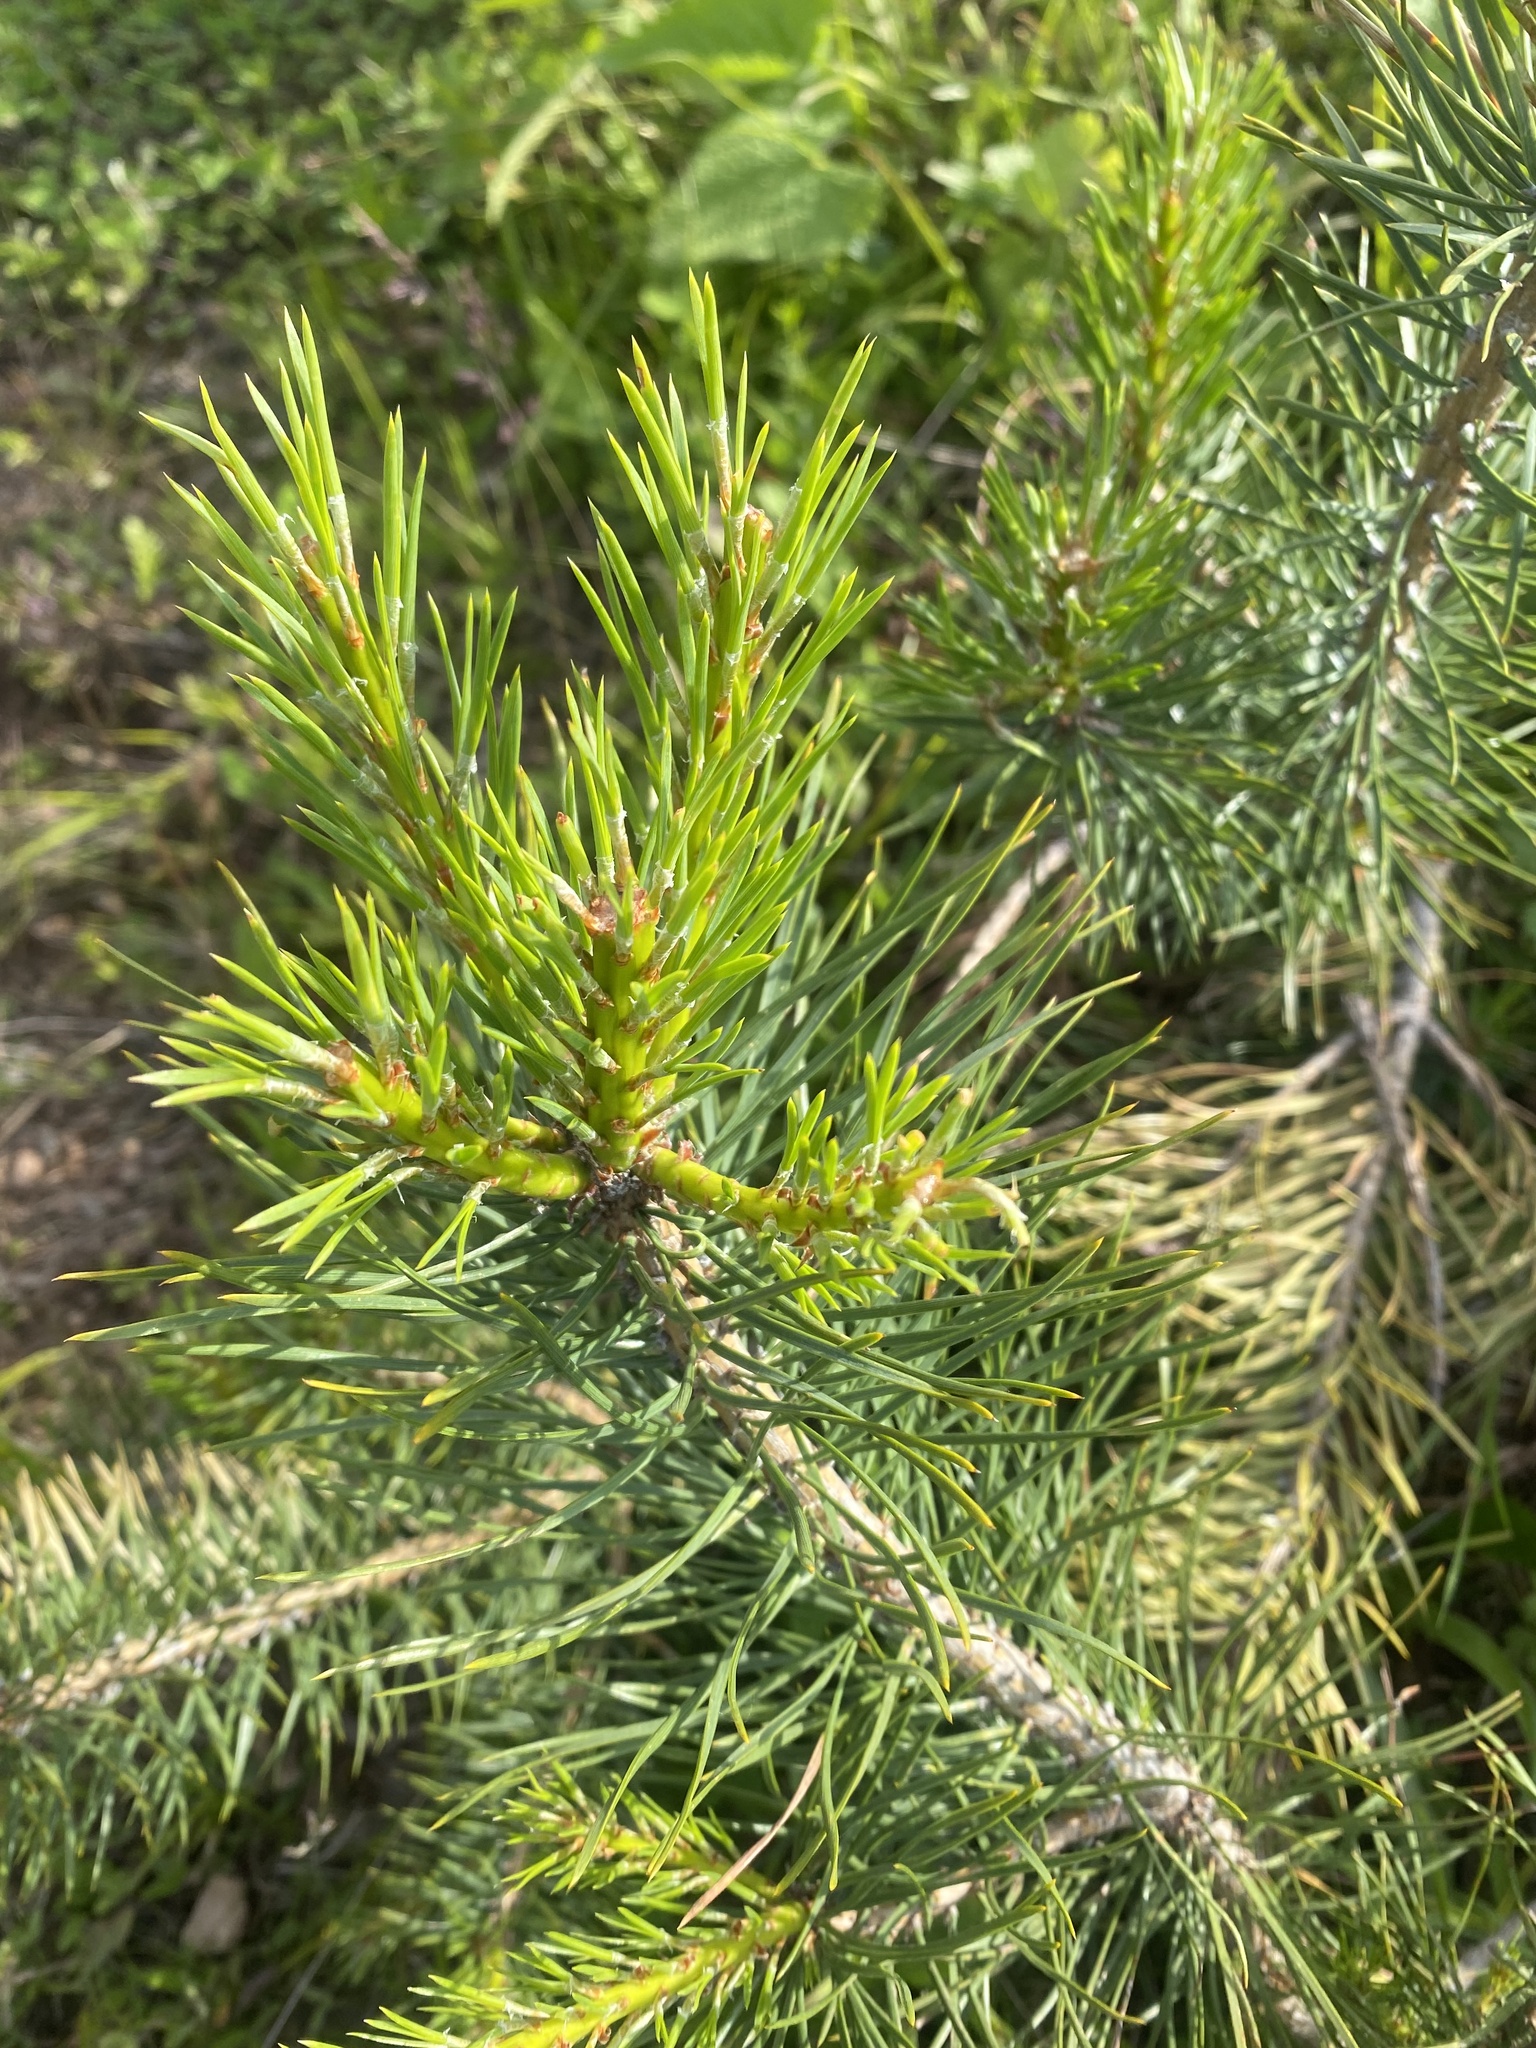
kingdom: Plantae
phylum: Tracheophyta
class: Pinopsida
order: Pinales
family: Pinaceae
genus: Pinus
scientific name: Pinus sylvestris
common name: Scots pine
